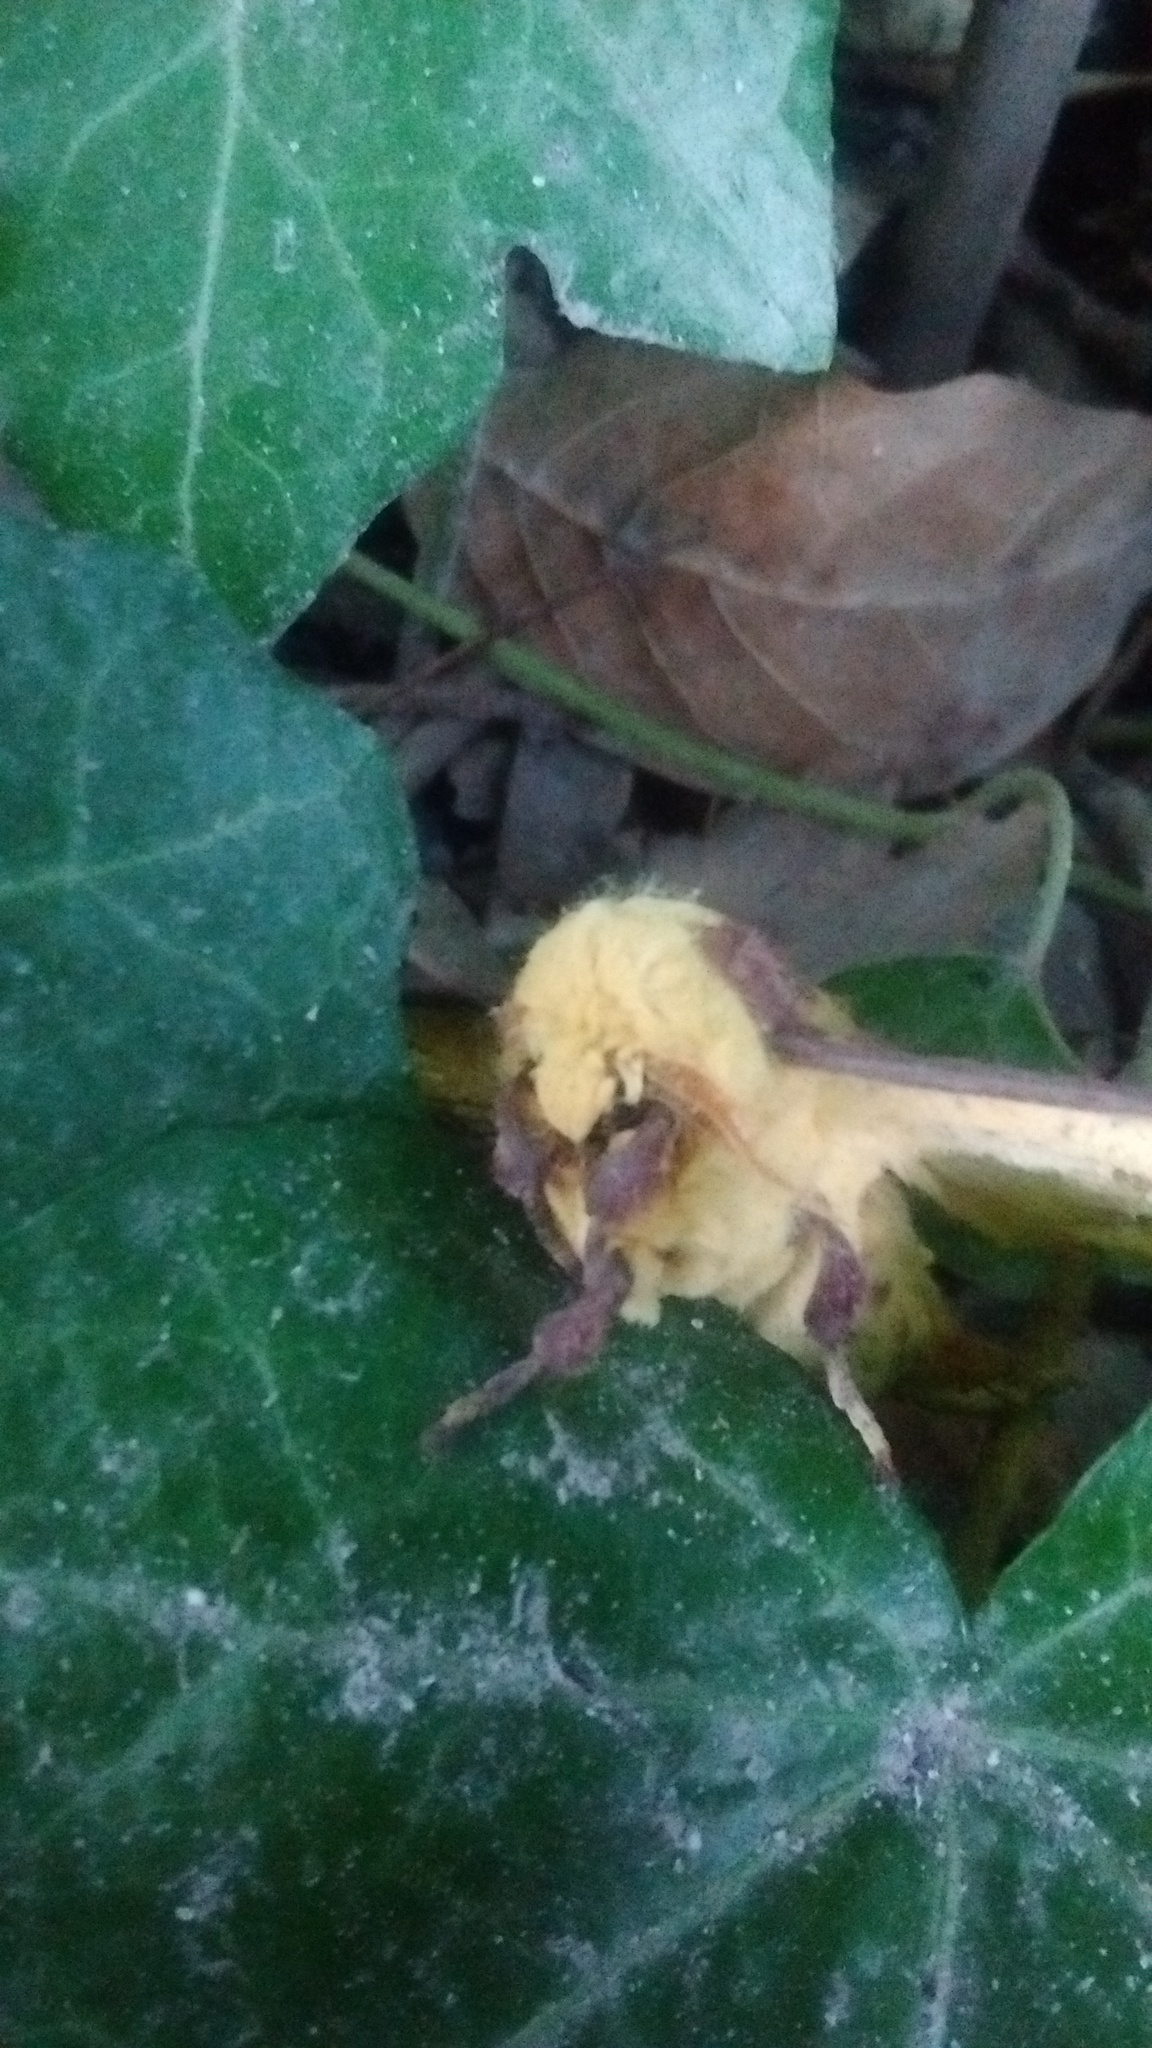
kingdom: Animalia
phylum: Arthropoda
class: Insecta
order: Lepidoptera
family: Saturniidae
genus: Eacles
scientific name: Eacles imperialis
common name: Imperial moth
